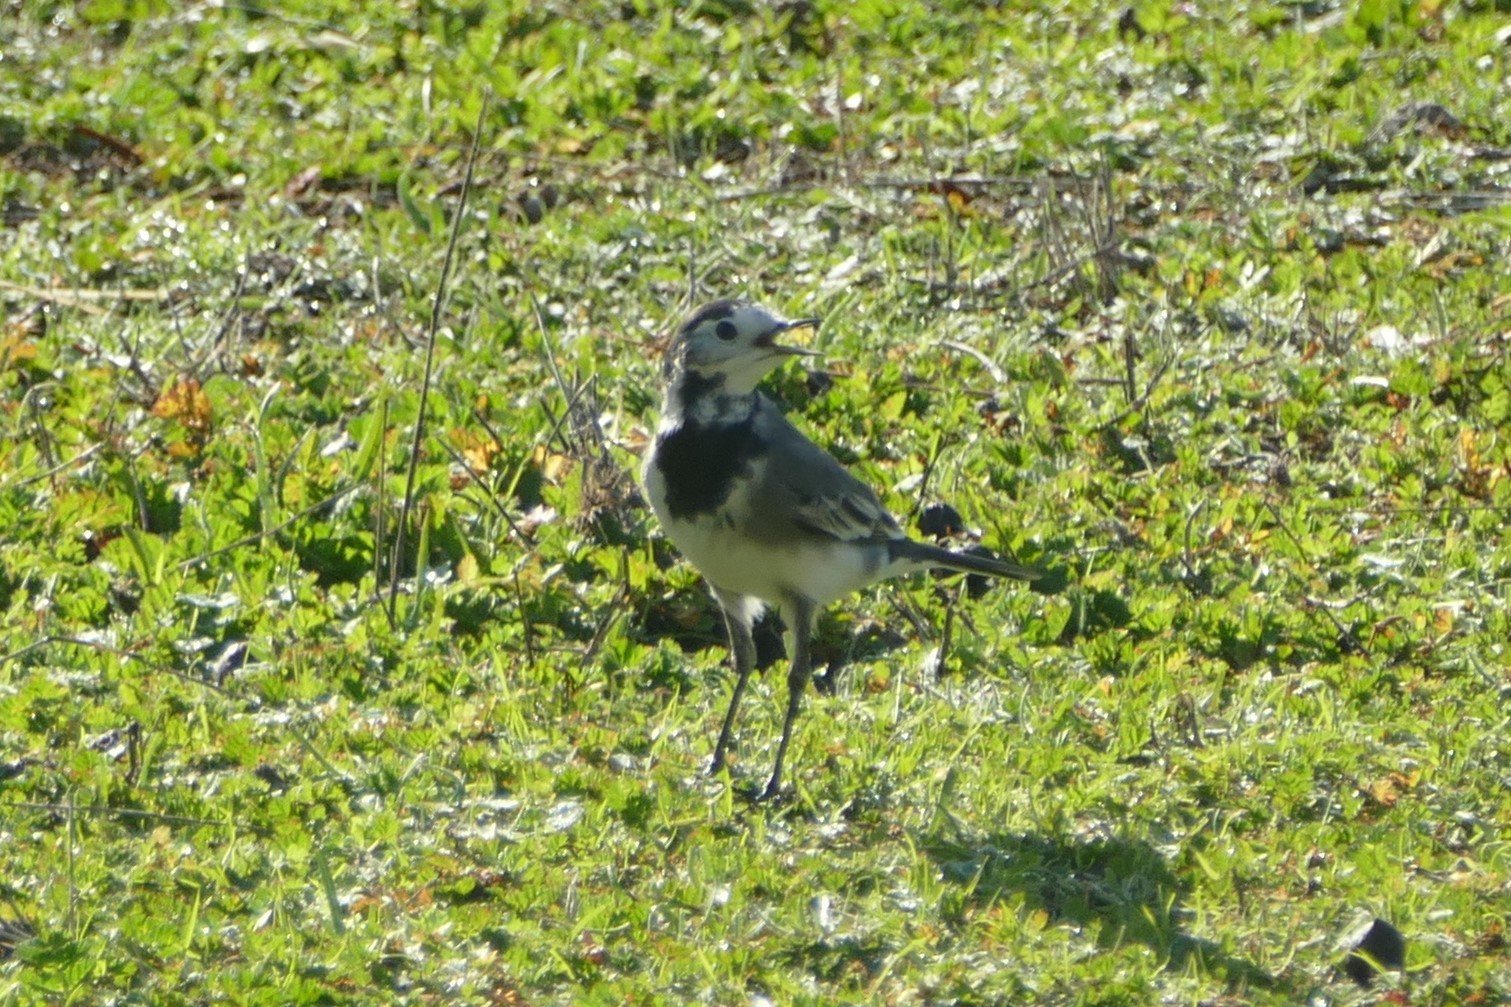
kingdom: Animalia
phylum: Chordata
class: Aves
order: Passeriformes
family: Motacillidae
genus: Motacilla
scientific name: Motacilla alba
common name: White wagtail
